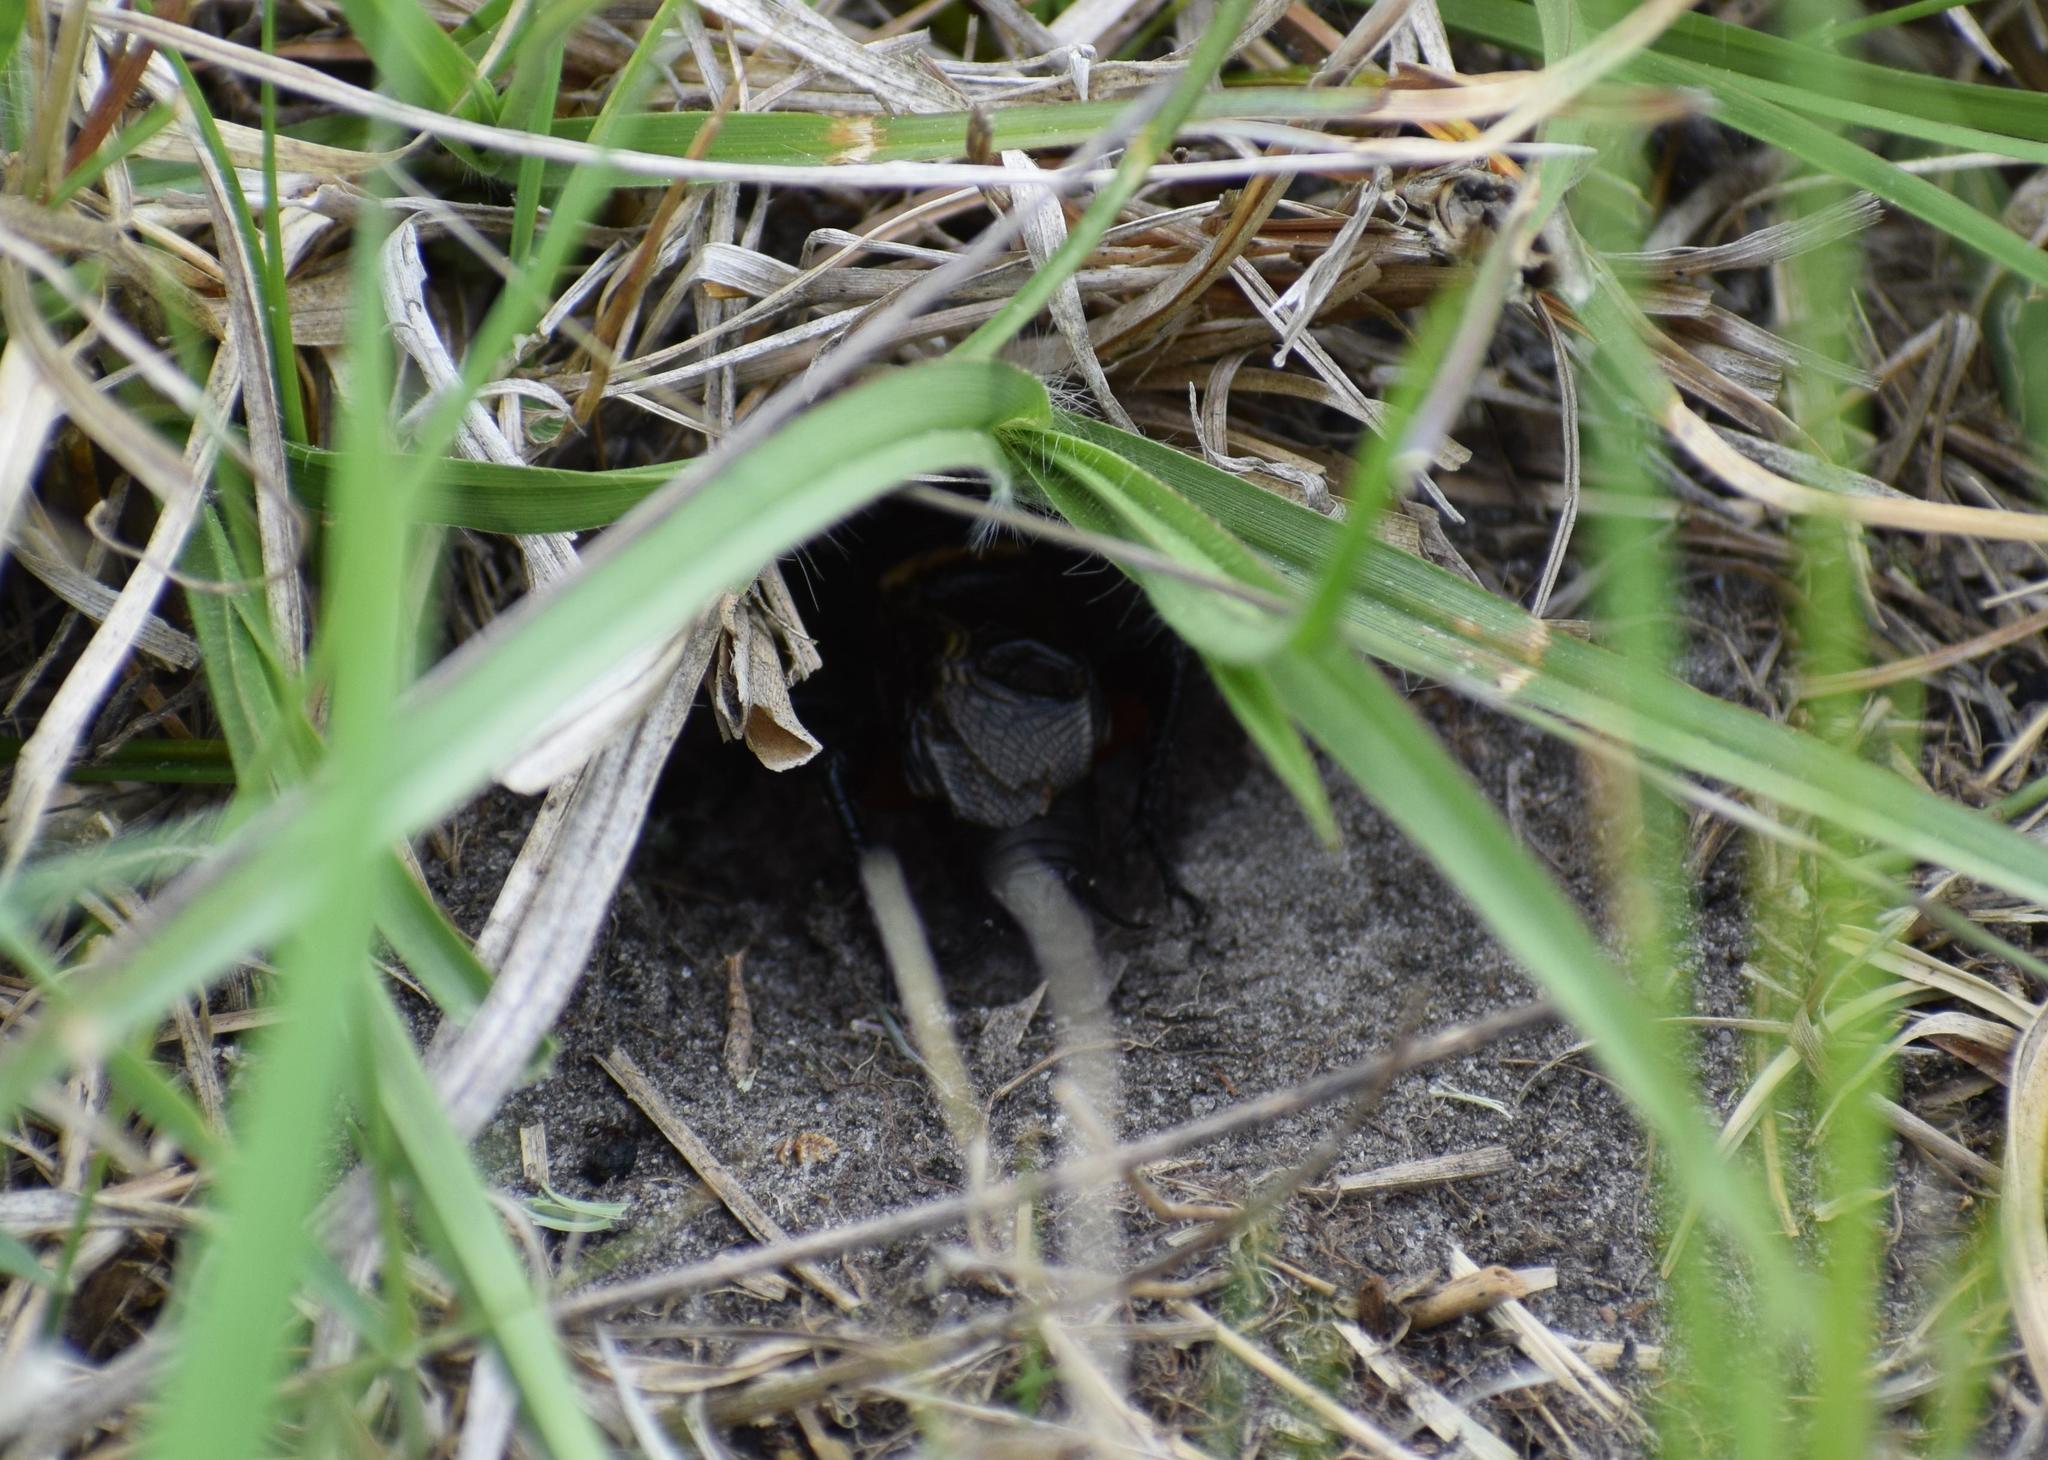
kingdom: Animalia
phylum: Arthropoda
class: Insecta
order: Orthoptera
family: Gryllidae
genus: Gryllus
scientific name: Gryllus campestris
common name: Field cricket
